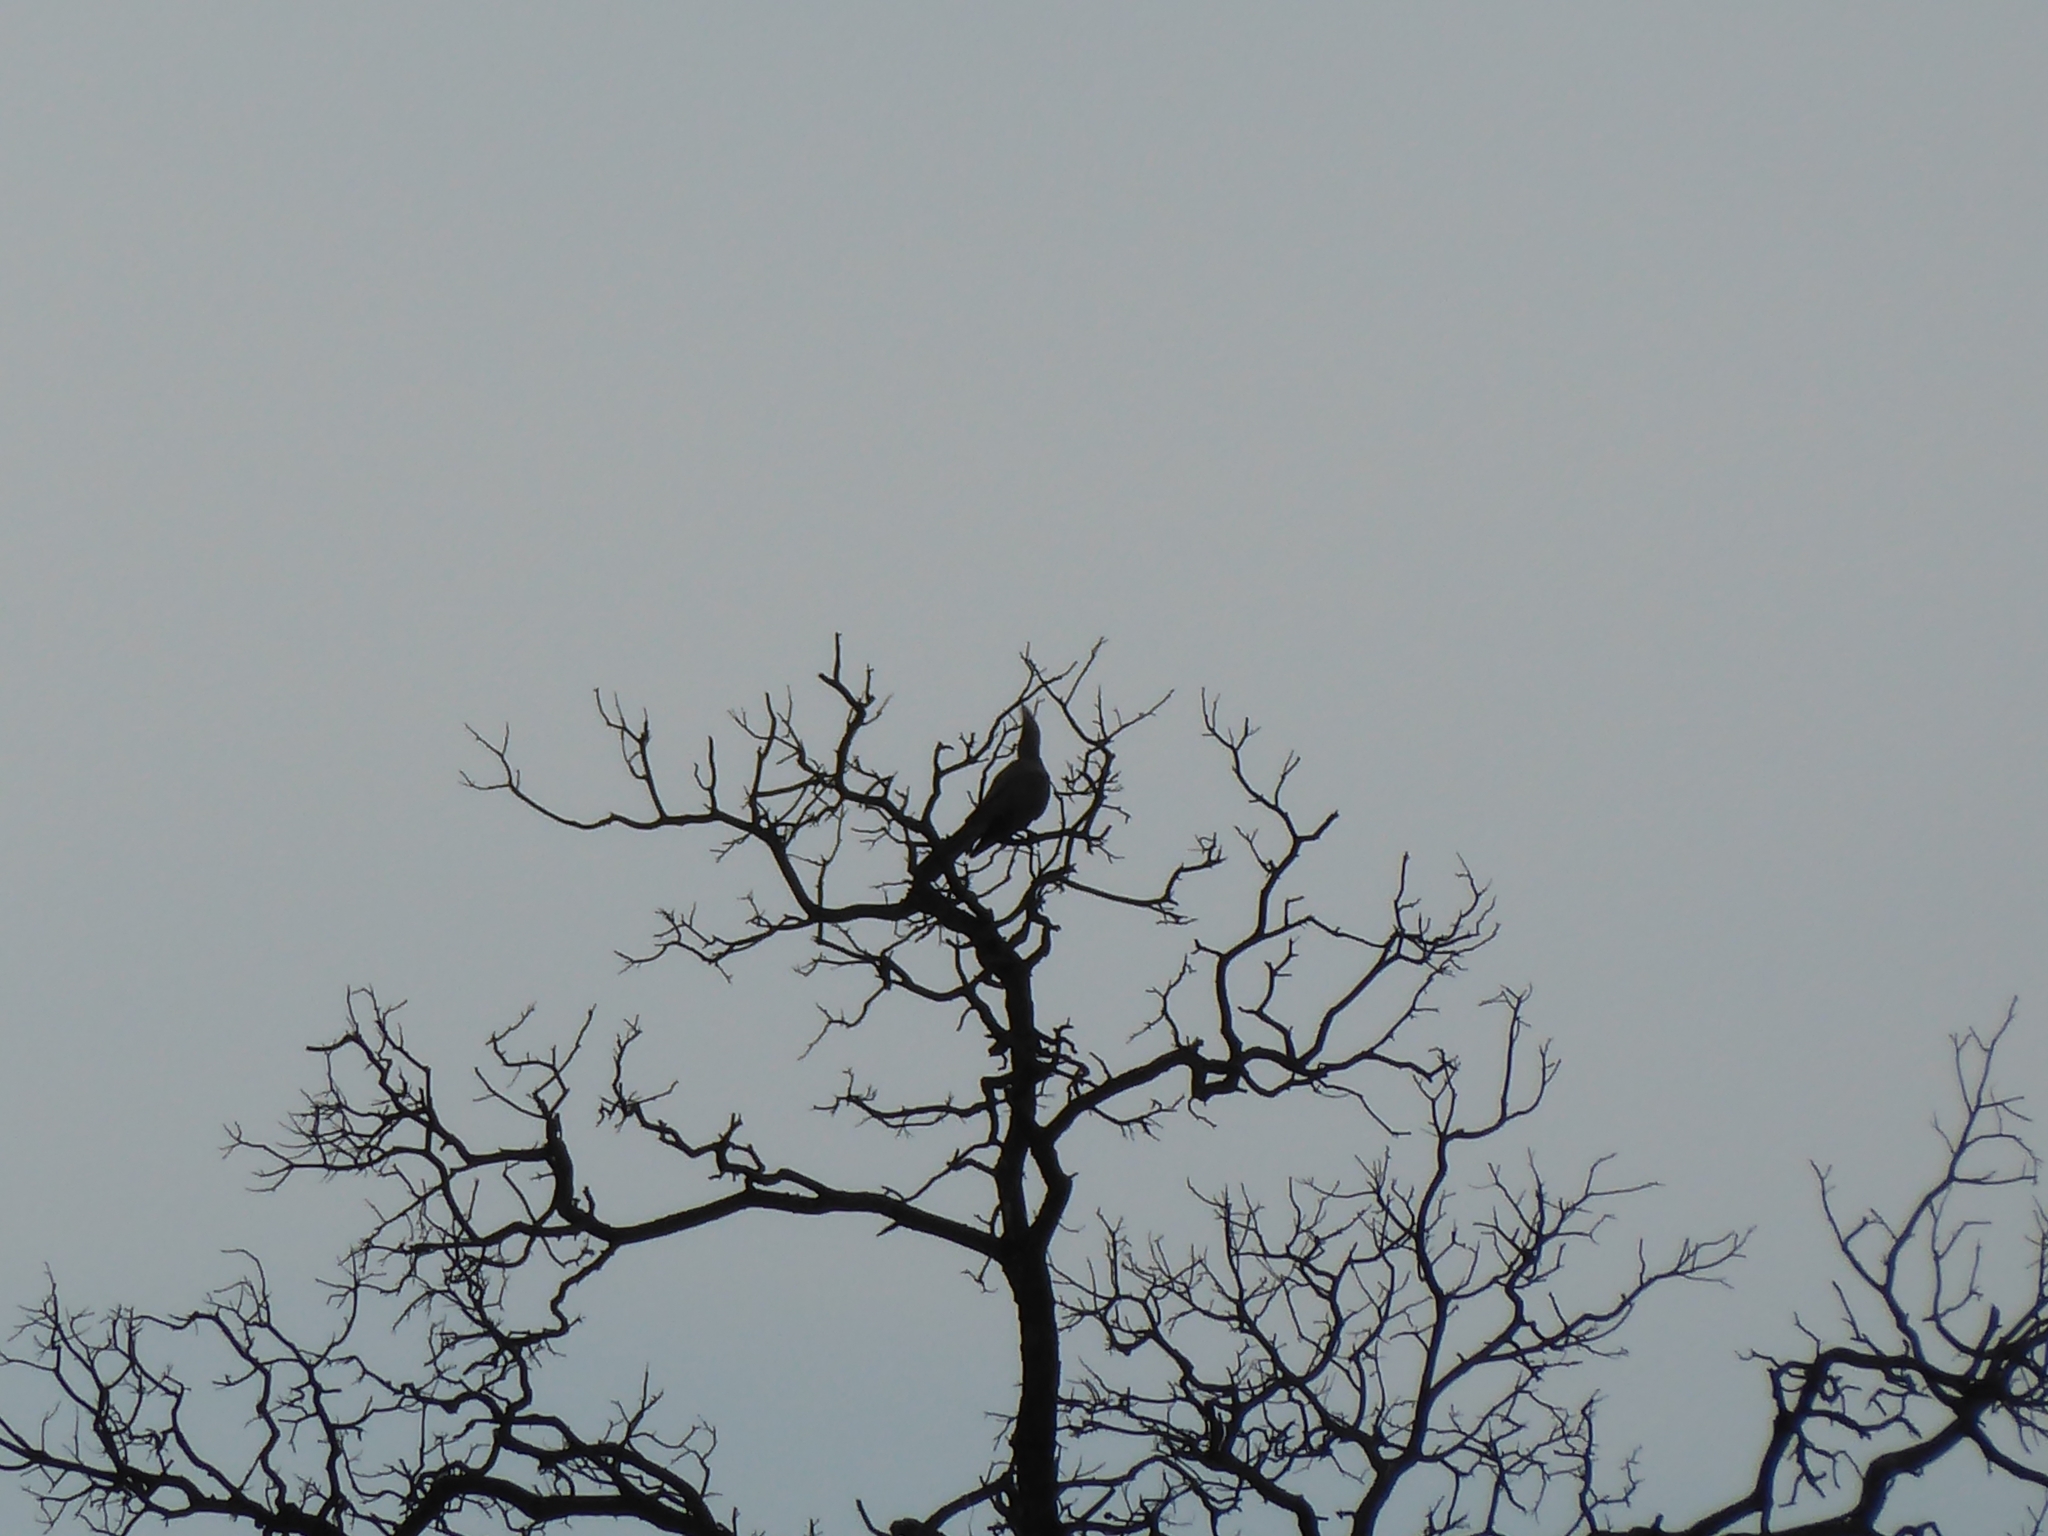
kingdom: Animalia
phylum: Chordata
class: Aves
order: Musophagiformes
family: Musophagidae
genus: Corythaixoides
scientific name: Corythaixoides concolor
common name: Grey go-away-bird
